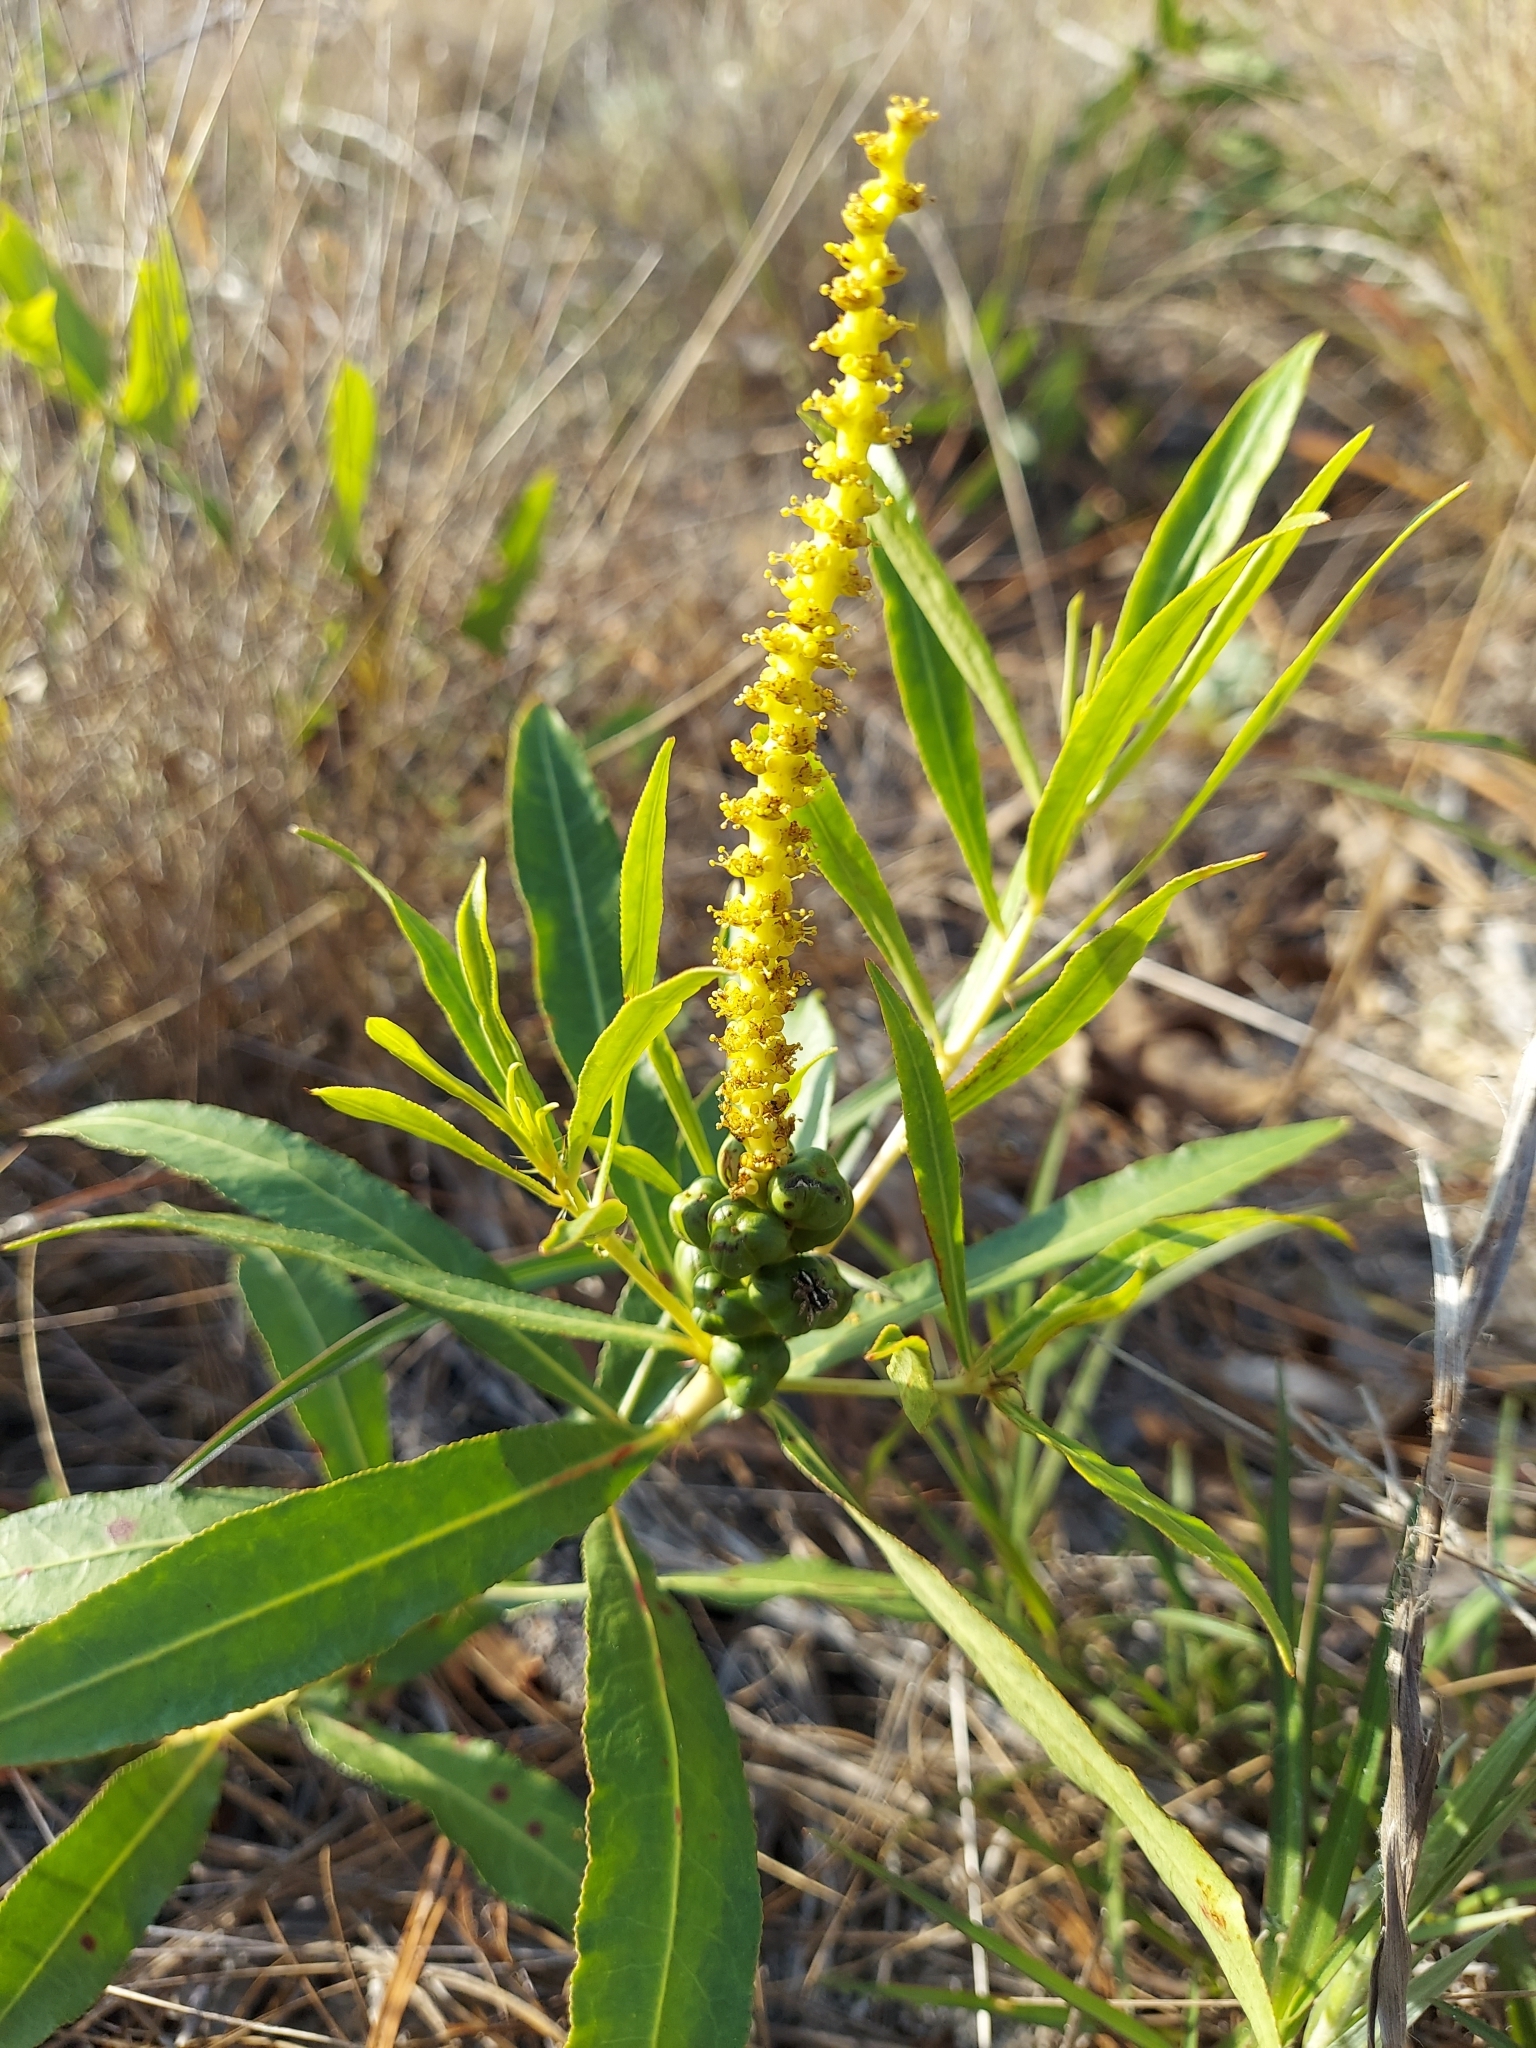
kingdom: Plantae
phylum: Tracheophyta
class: Magnoliopsida
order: Malpighiales
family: Euphorbiaceae
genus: Stillingia
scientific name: Stillingia sylvatica
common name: Queen's-delight
